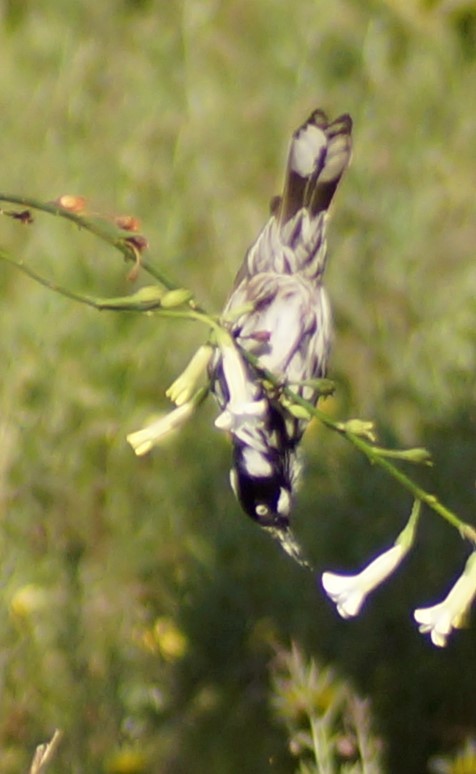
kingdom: Animalia
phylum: Chordata
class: Aves
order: Passeriformes
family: Meliphagidae
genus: Phylidonyris
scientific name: Phylidonyris novaehollandiae
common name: New holland honeyeater
